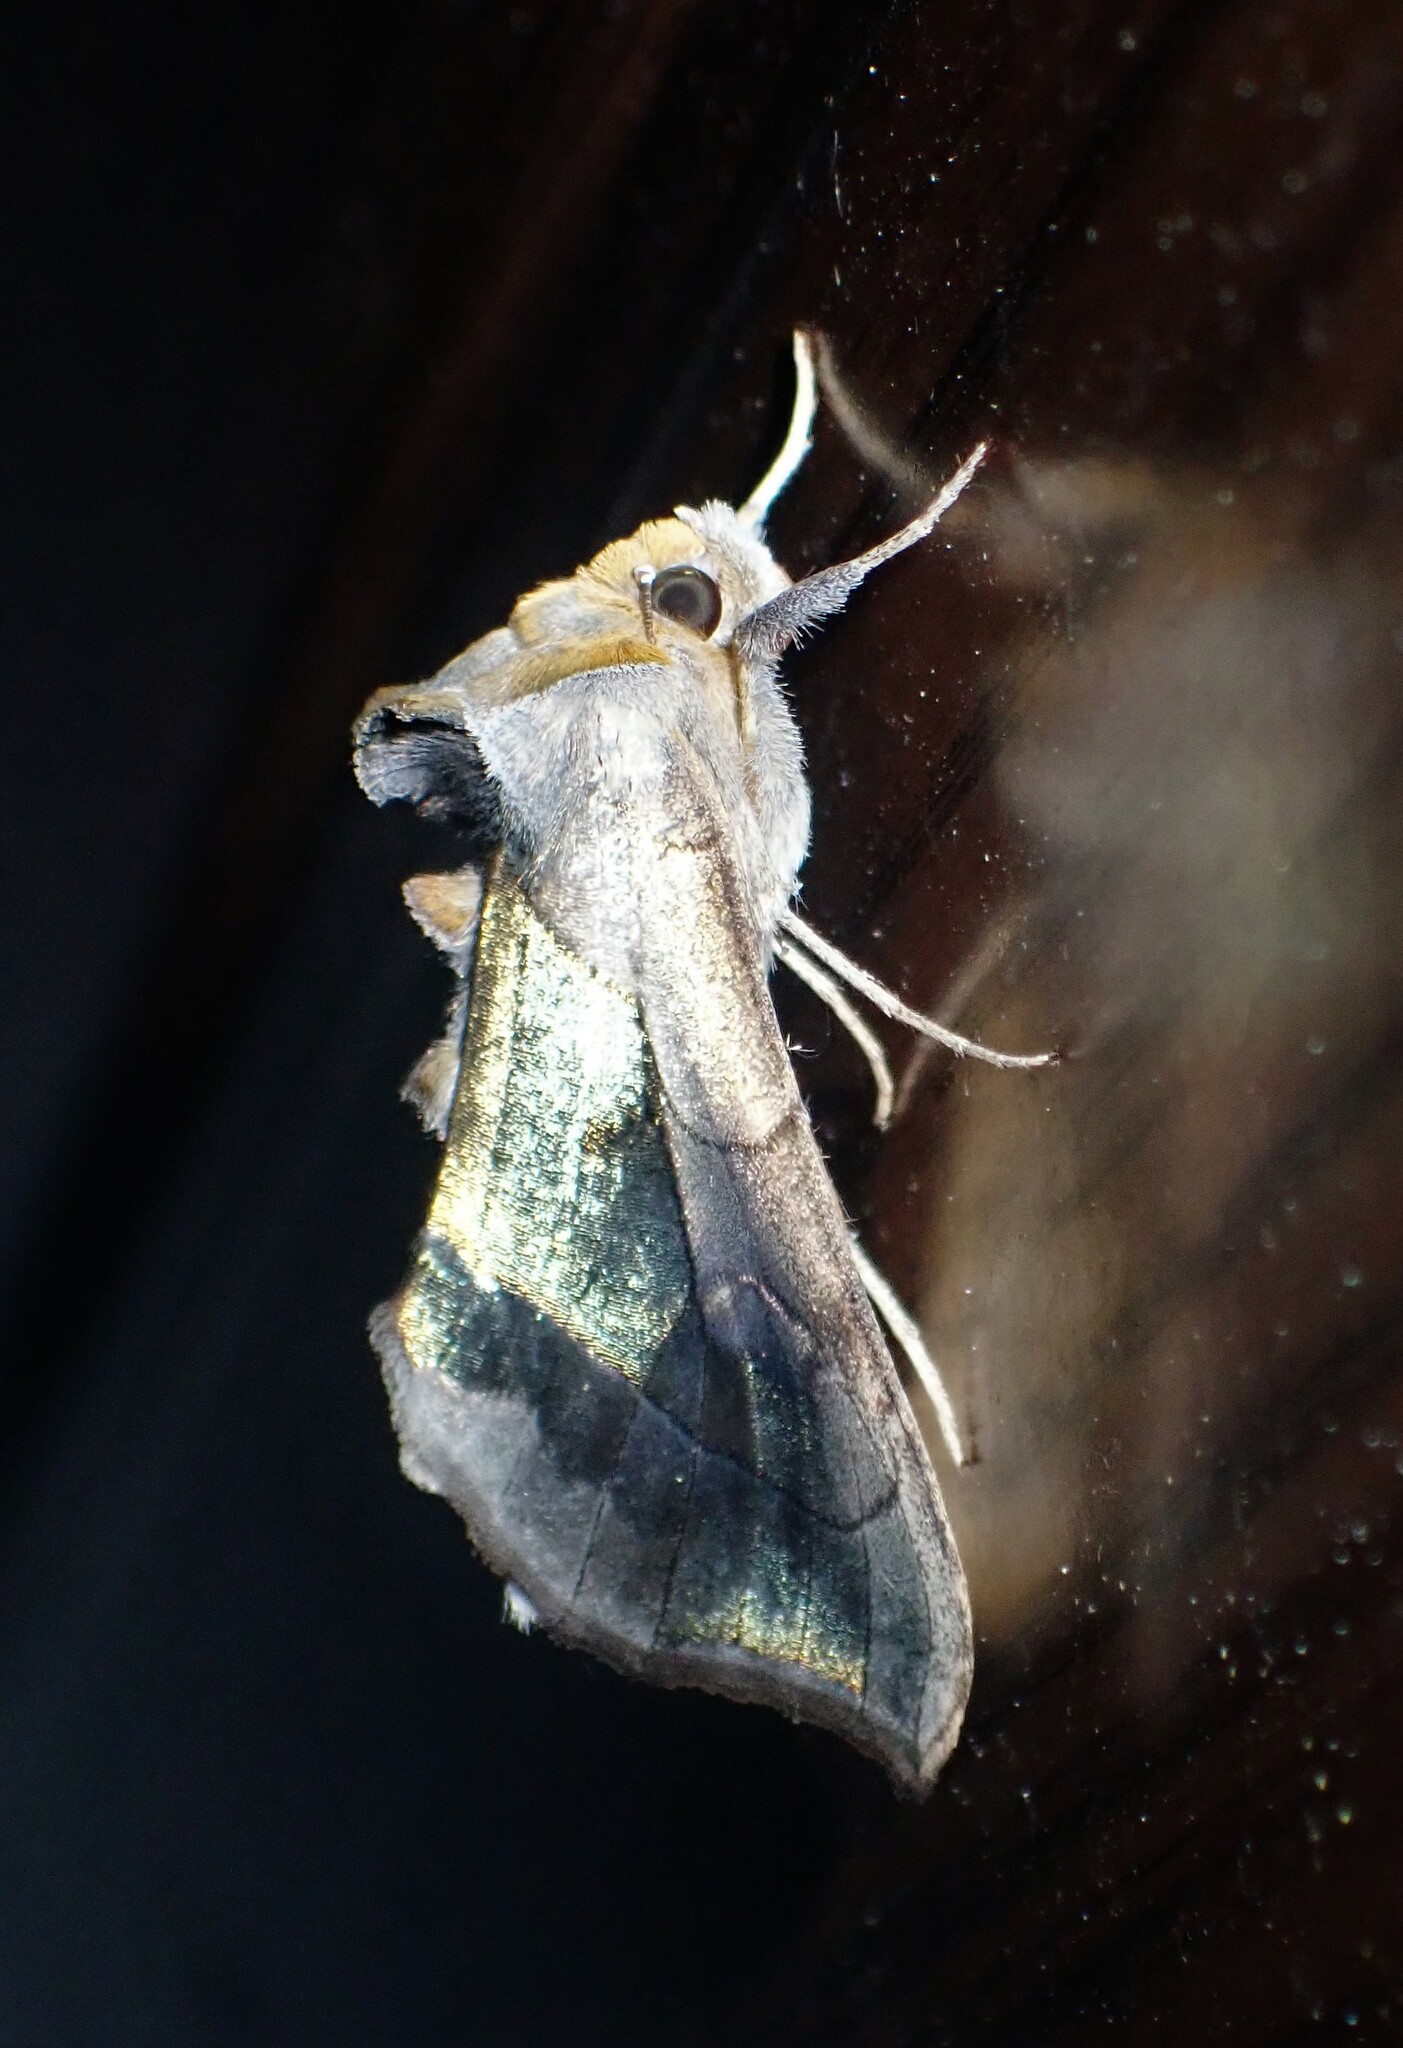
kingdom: Animalia
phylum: Arthropoda
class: Insecta
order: Lepidoptera
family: Noctuidae
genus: Diachrysia
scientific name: Diachrysia balluca
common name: Green-patched looper moth
